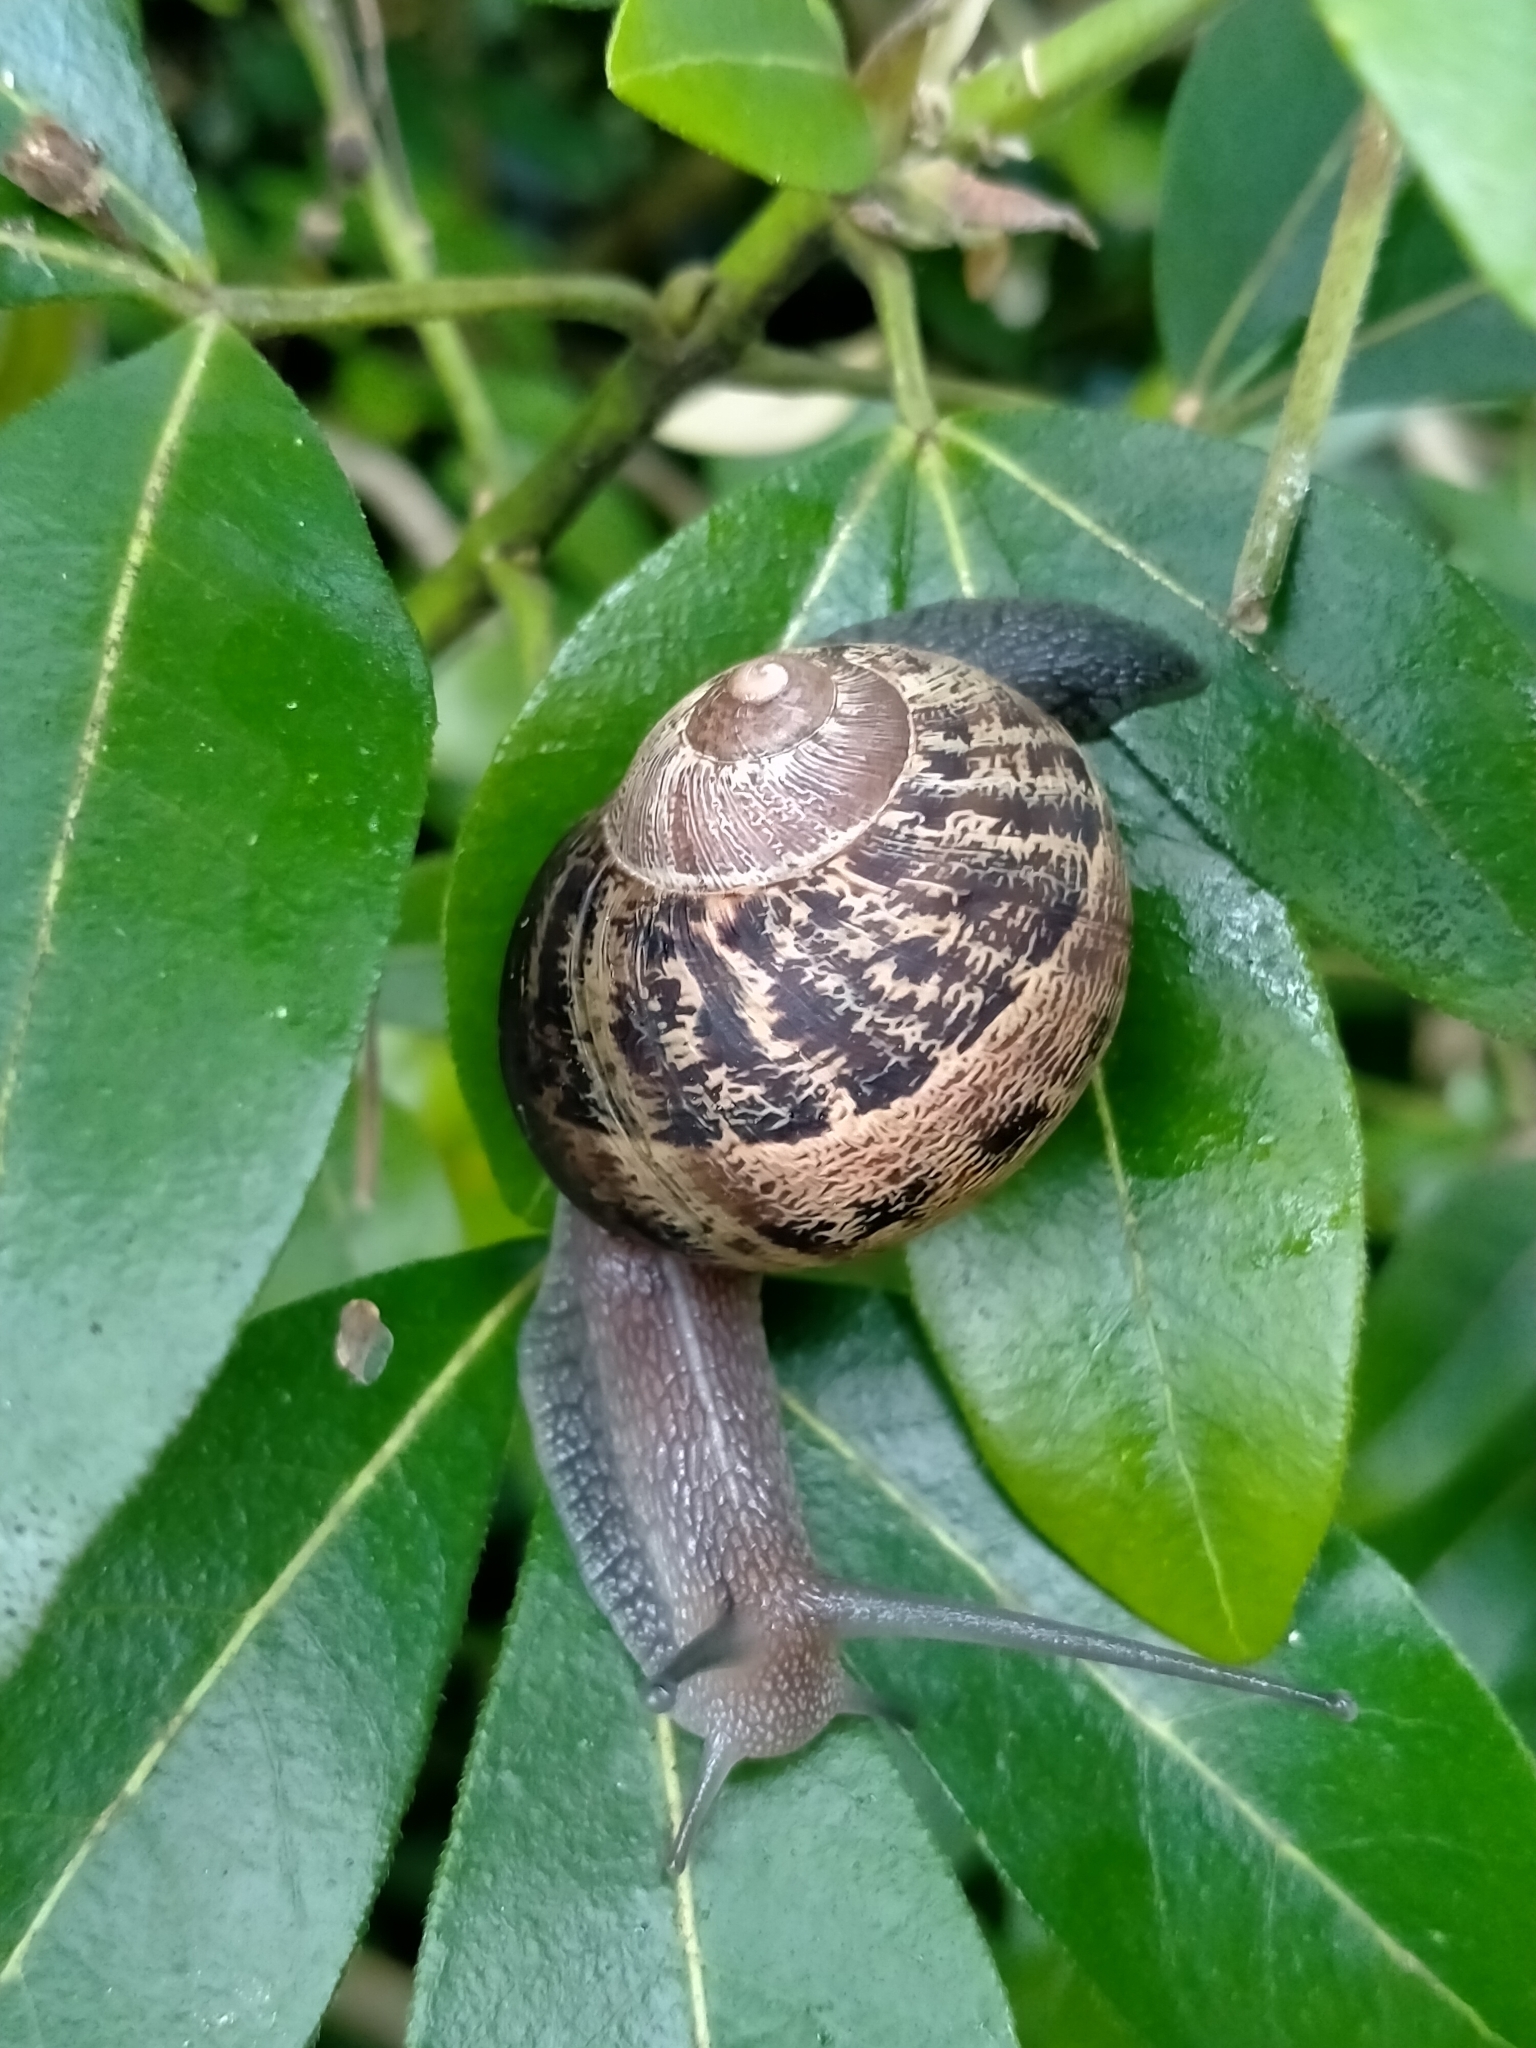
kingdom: Animalia
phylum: Mollusca
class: Gastropoda
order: Stylommatophora
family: Helicidae
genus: Cornu
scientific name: Cornu aspersum
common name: Brown garden snail
